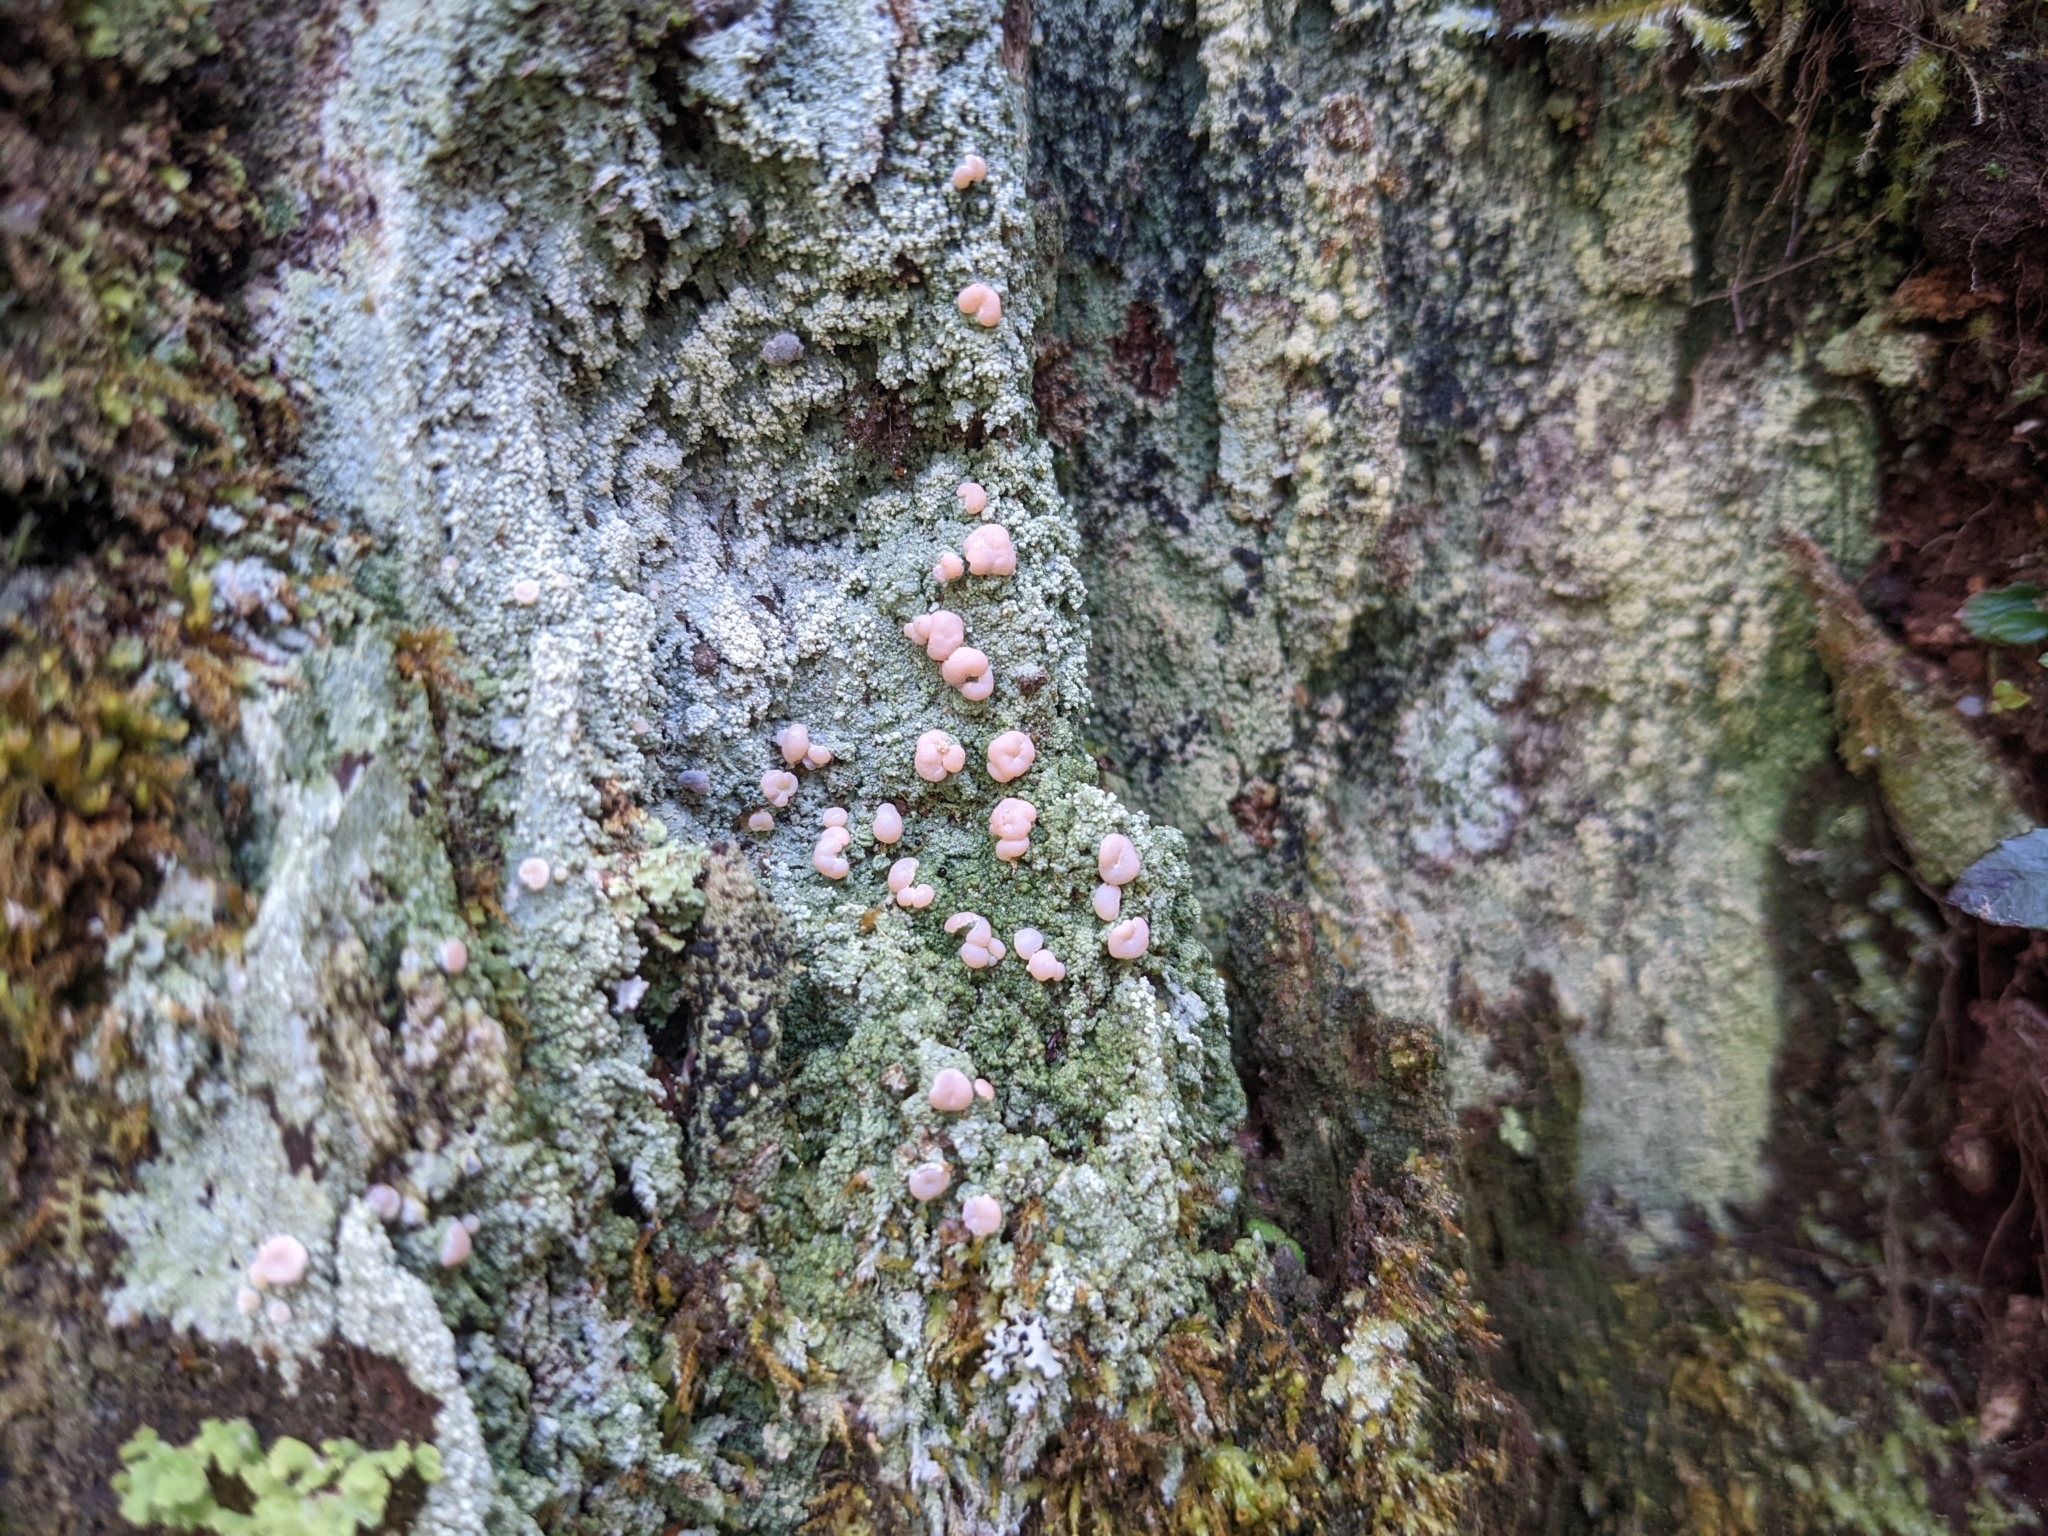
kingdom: Fungi
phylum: Ascomycota
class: Lecanoromycetes
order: Pertusariales
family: Icmadophilaceae
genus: Icmadophila
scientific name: Icmadophila ericetorum
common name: Candy lichen
